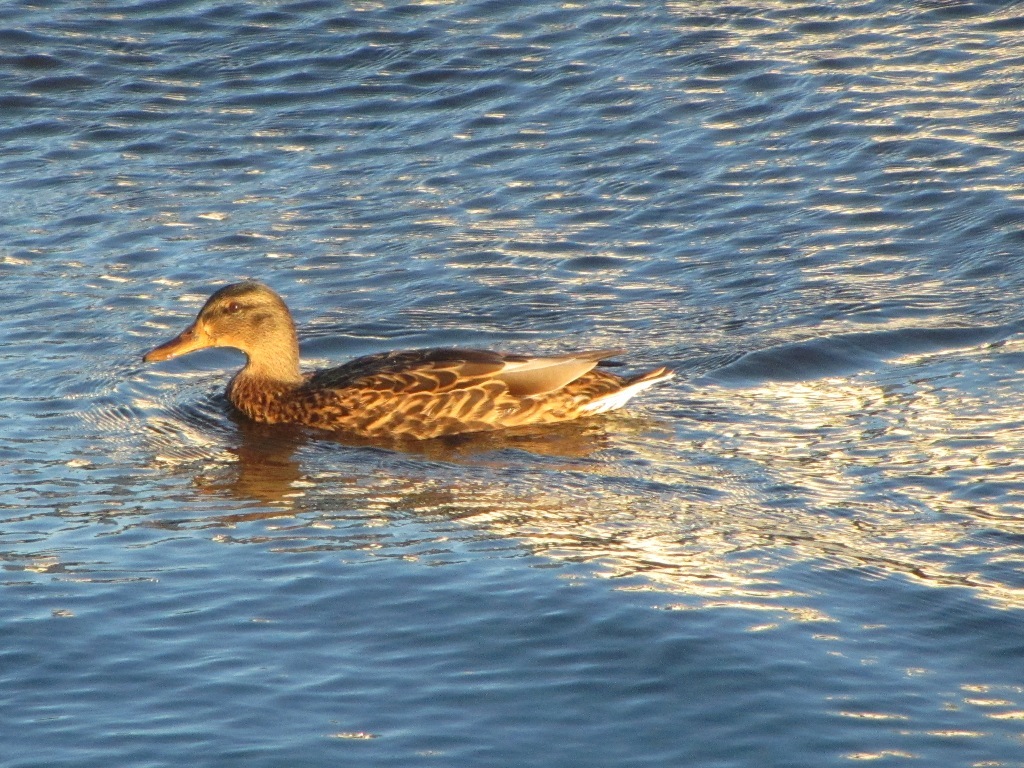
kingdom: Animalia
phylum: Chordata
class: Aves
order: Anseriformes
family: Anatidae
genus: Anas
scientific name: Anas platyrhynchos
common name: Mallard
